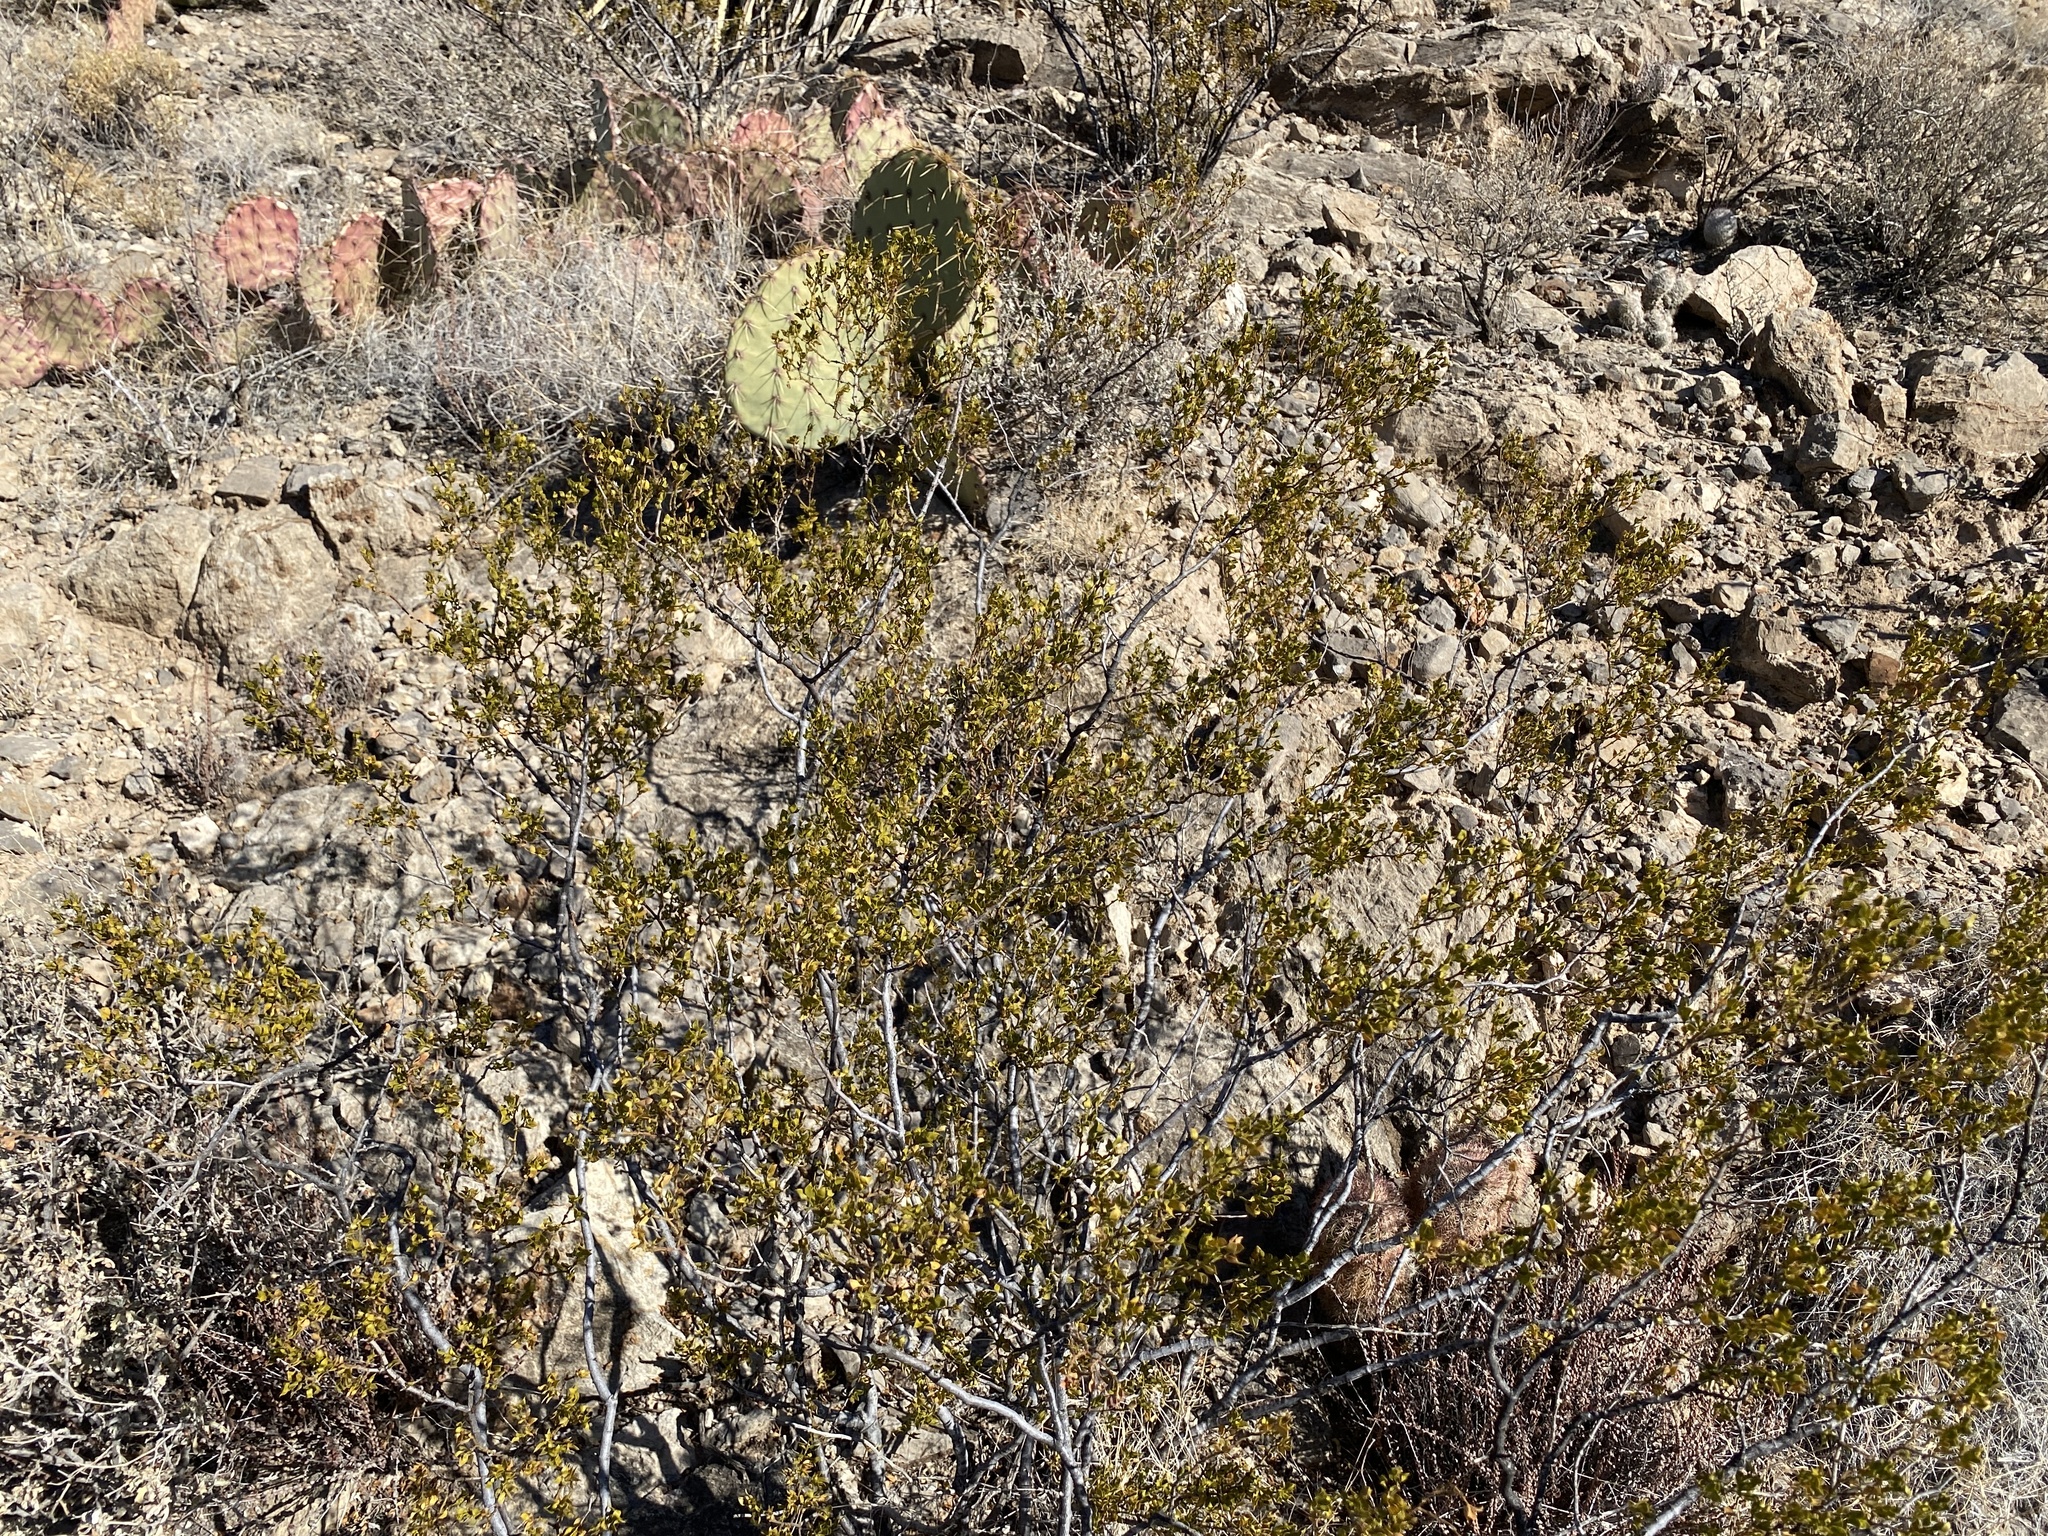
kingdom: Plantae
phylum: Tracheophyta
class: Magnoliopsida
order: Zygophyllales
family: Zygophyllaceae
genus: Larrea
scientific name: Larrea tridentata
